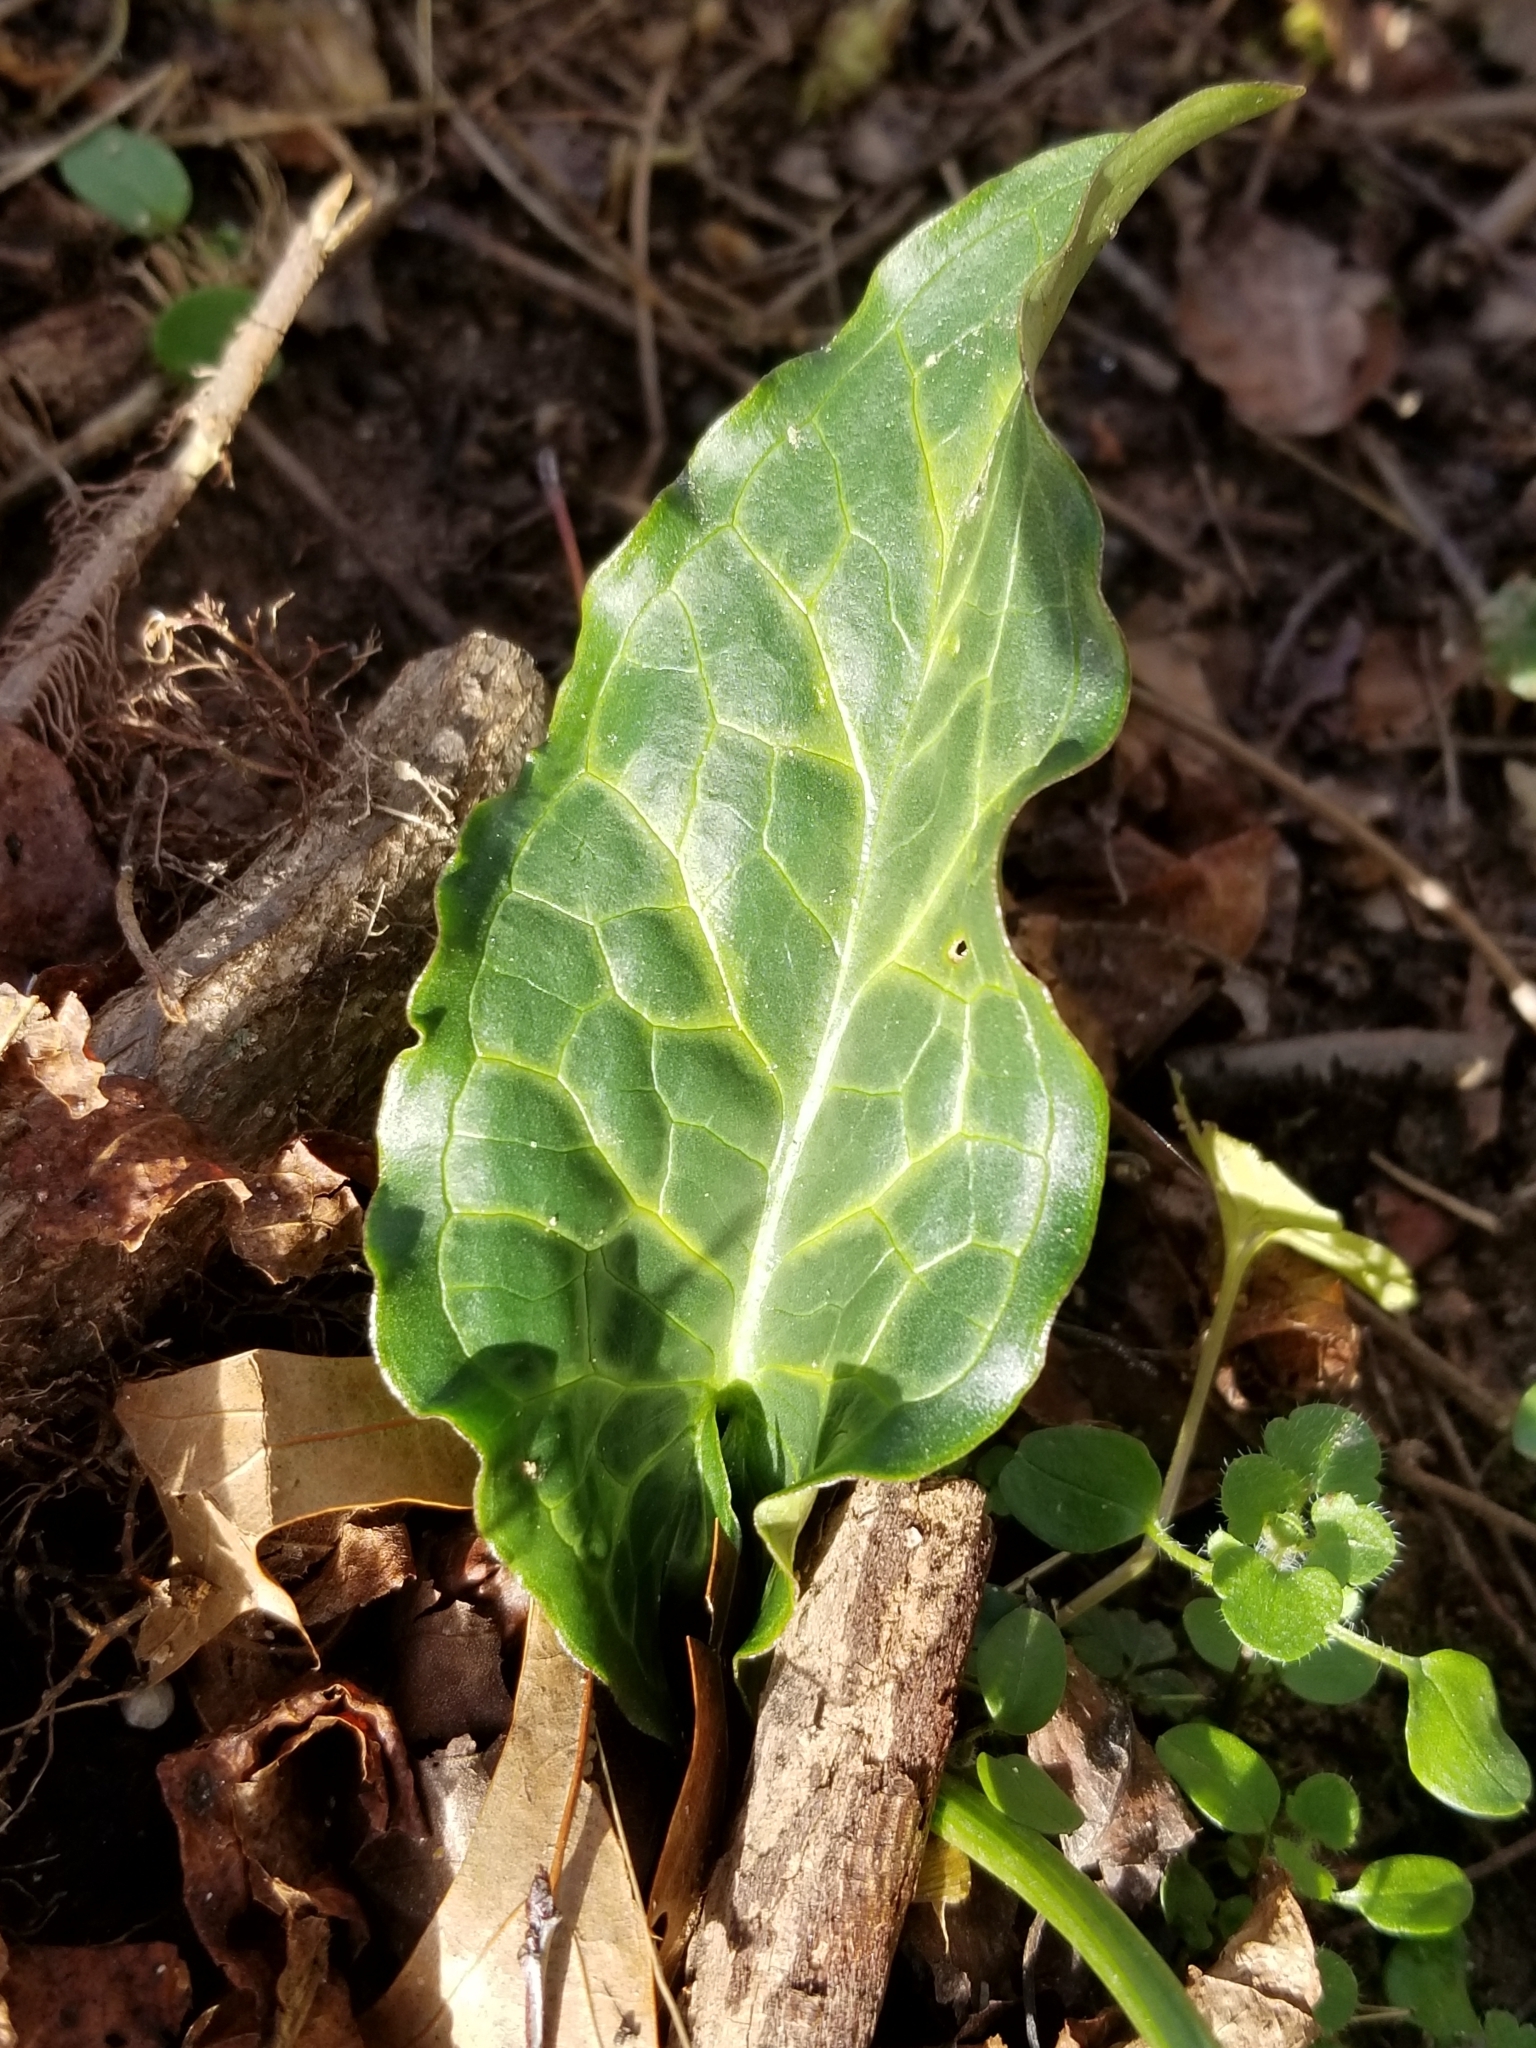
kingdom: Plantae
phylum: Tracheophyta
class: Liliopsida
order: Alismatales
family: Araceae
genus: Arum
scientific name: Arum italicum
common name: Italian lords-and-ladies
